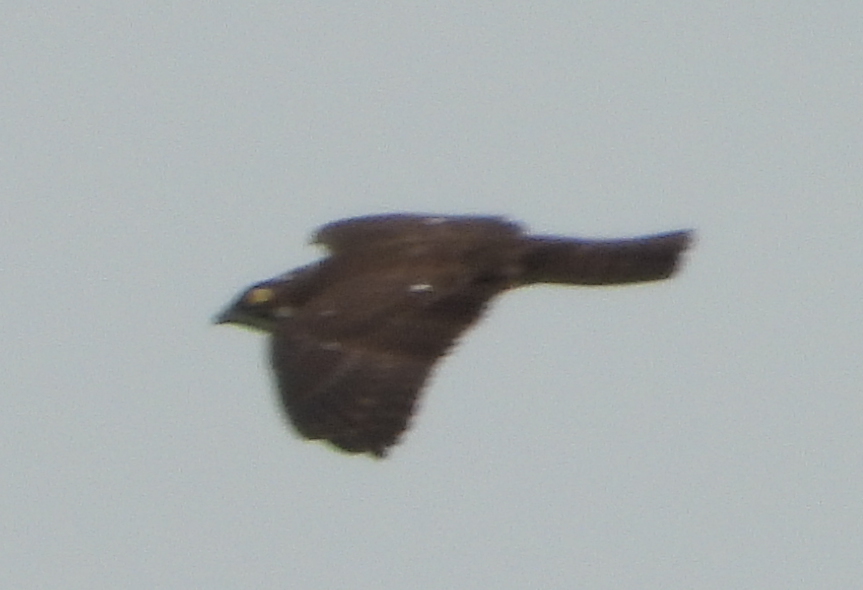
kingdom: Animalia
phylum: Chordata
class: Aves
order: Accipitriformes
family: Accipitridae
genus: Macheiramphus
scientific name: Macheiramphus alcinus
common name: Bat hawk
